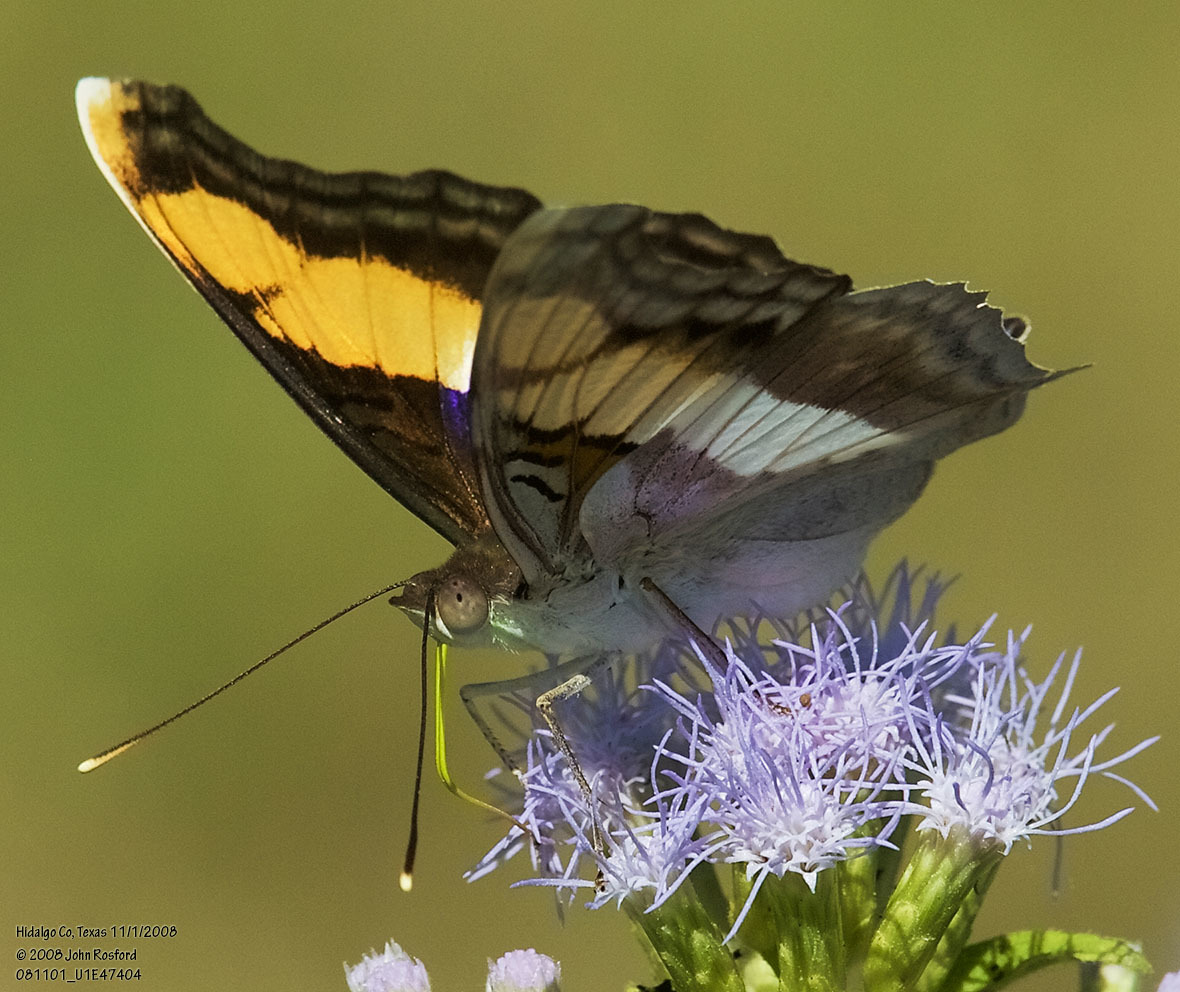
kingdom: Animalia
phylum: Arthropoda
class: Insecta
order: Lepidoptera
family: Nymphalidae
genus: Doxocopa
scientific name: Doxocopa laure
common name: Silver emperor
